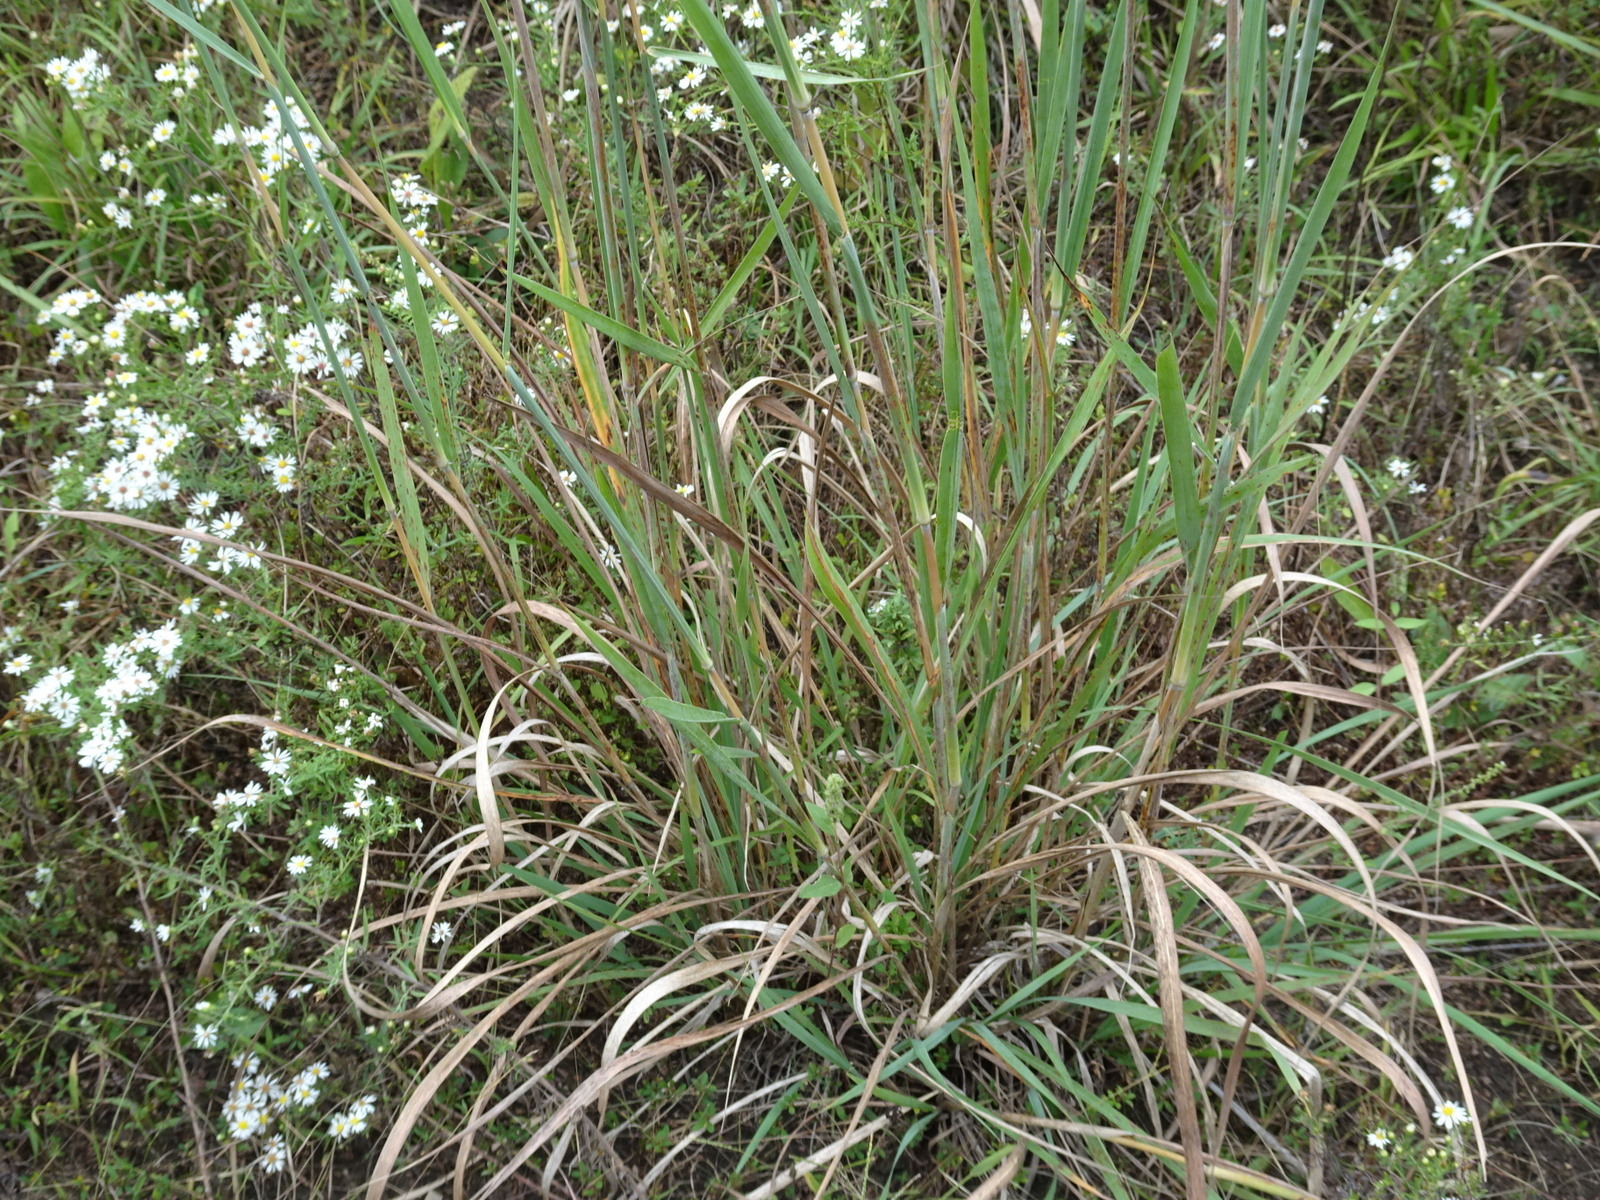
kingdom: Plantae
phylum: Tracheophyta
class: Liliopsida
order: Poales
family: Poaceae
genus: Sorghastrum
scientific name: Sorghastrum nutans
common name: Indian grass
